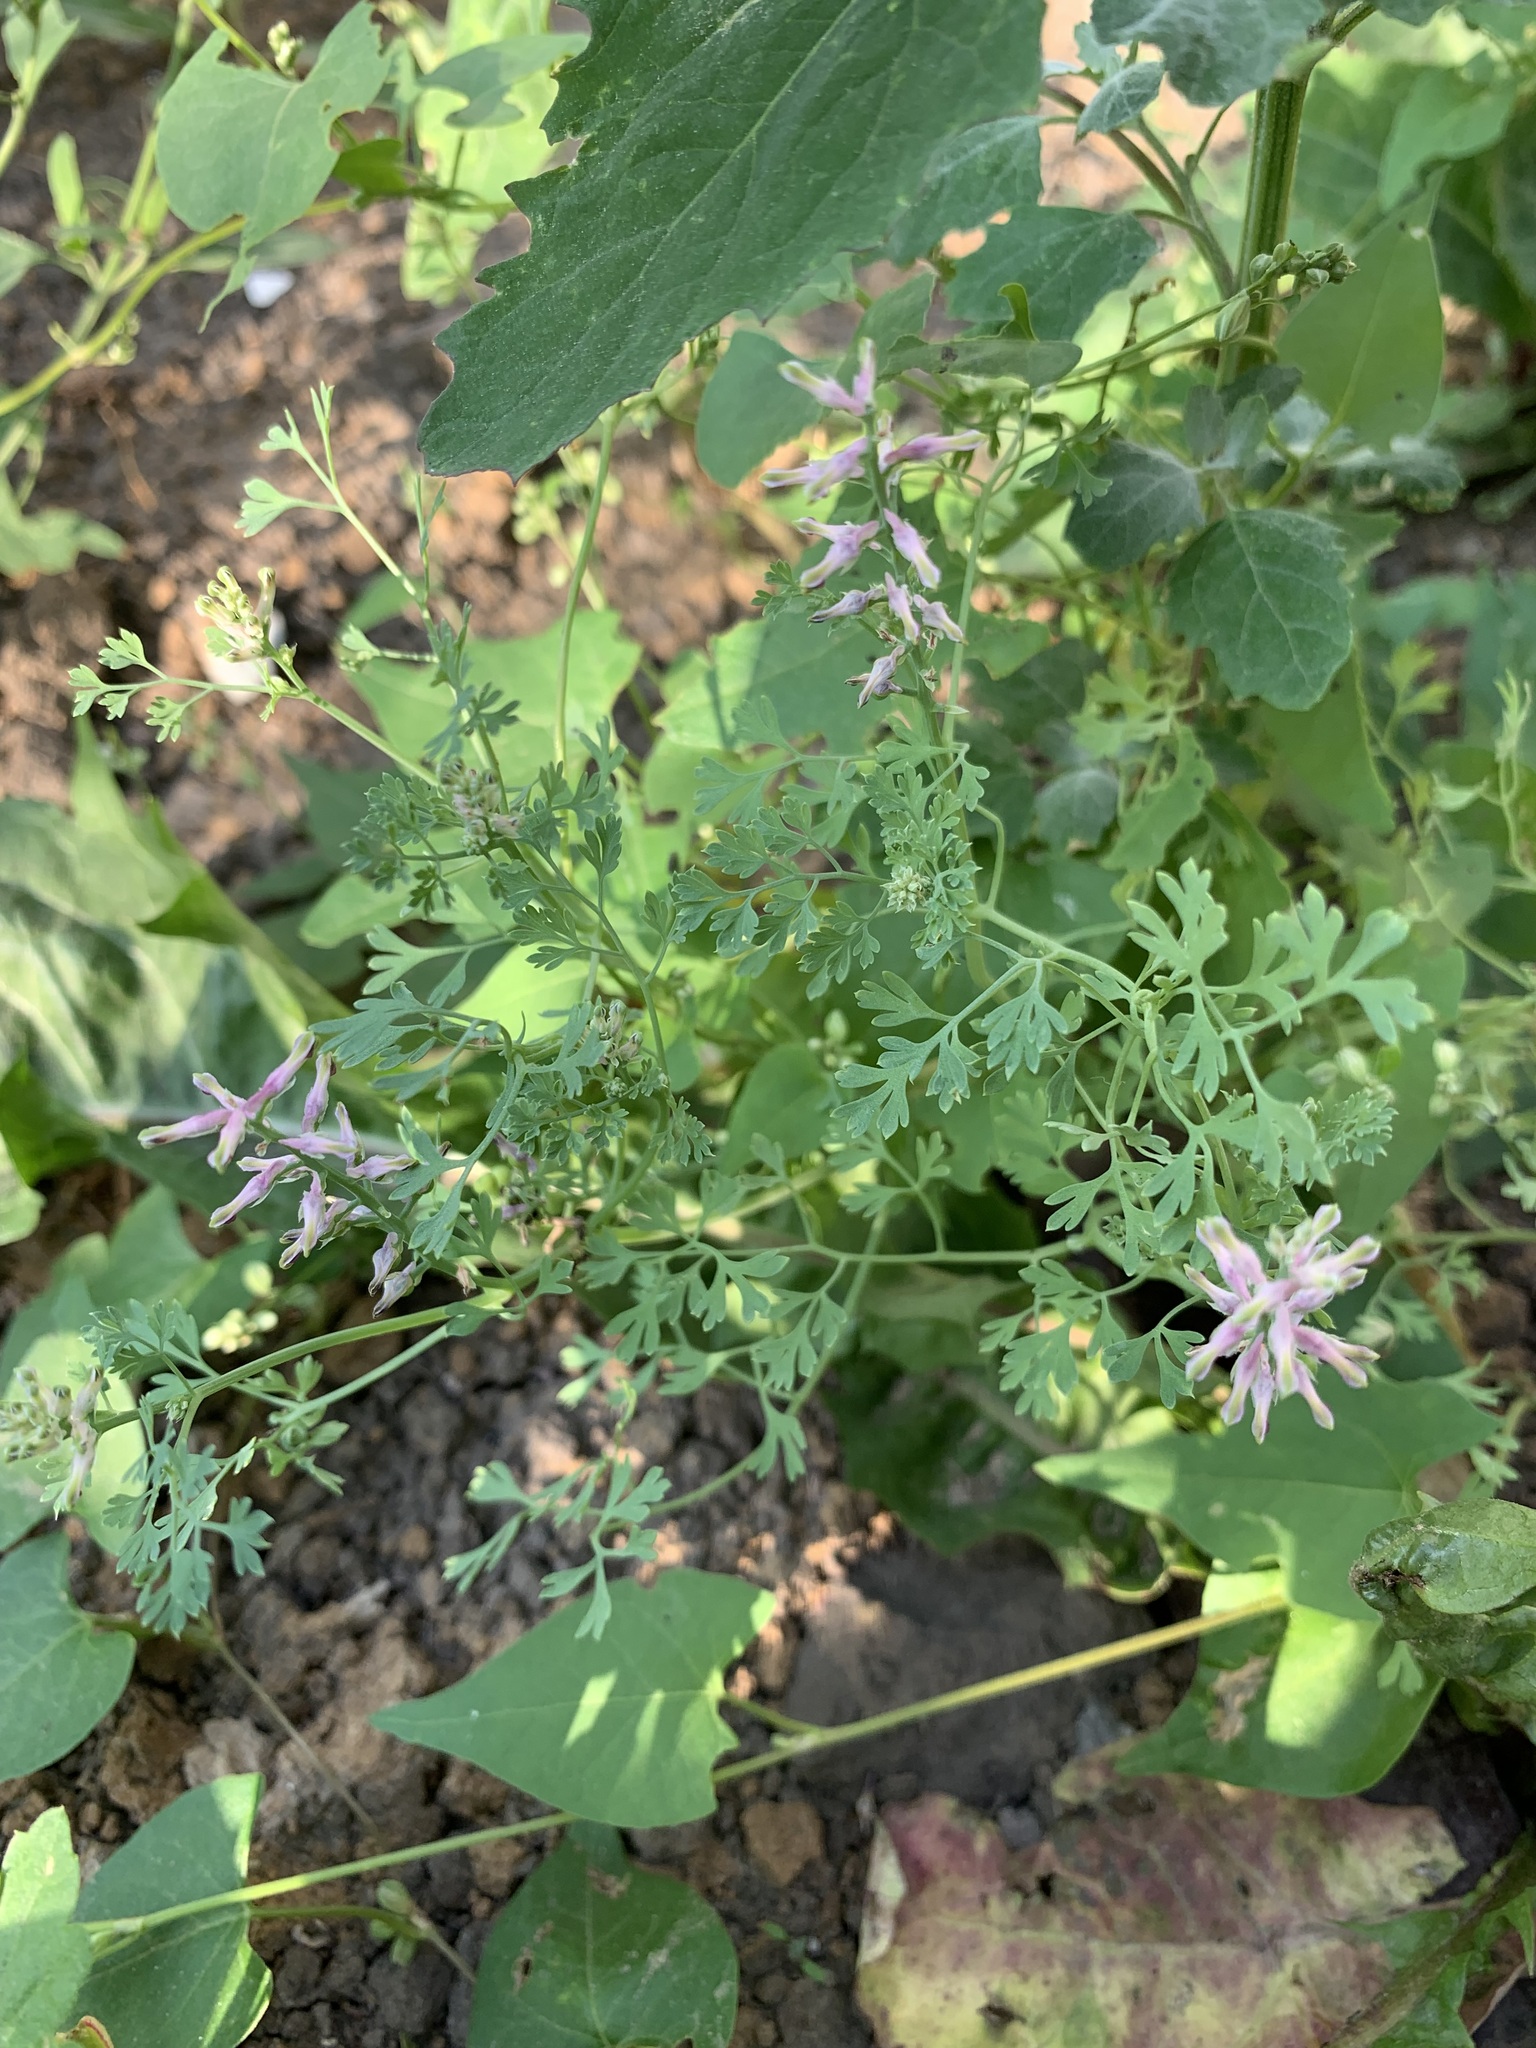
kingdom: Plantae
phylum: Tracheophyta
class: Magnoliopsida
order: Ranunculales
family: Papaveraceae
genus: Fumaria
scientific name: Fumaria officinalis
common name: Common fumitory
